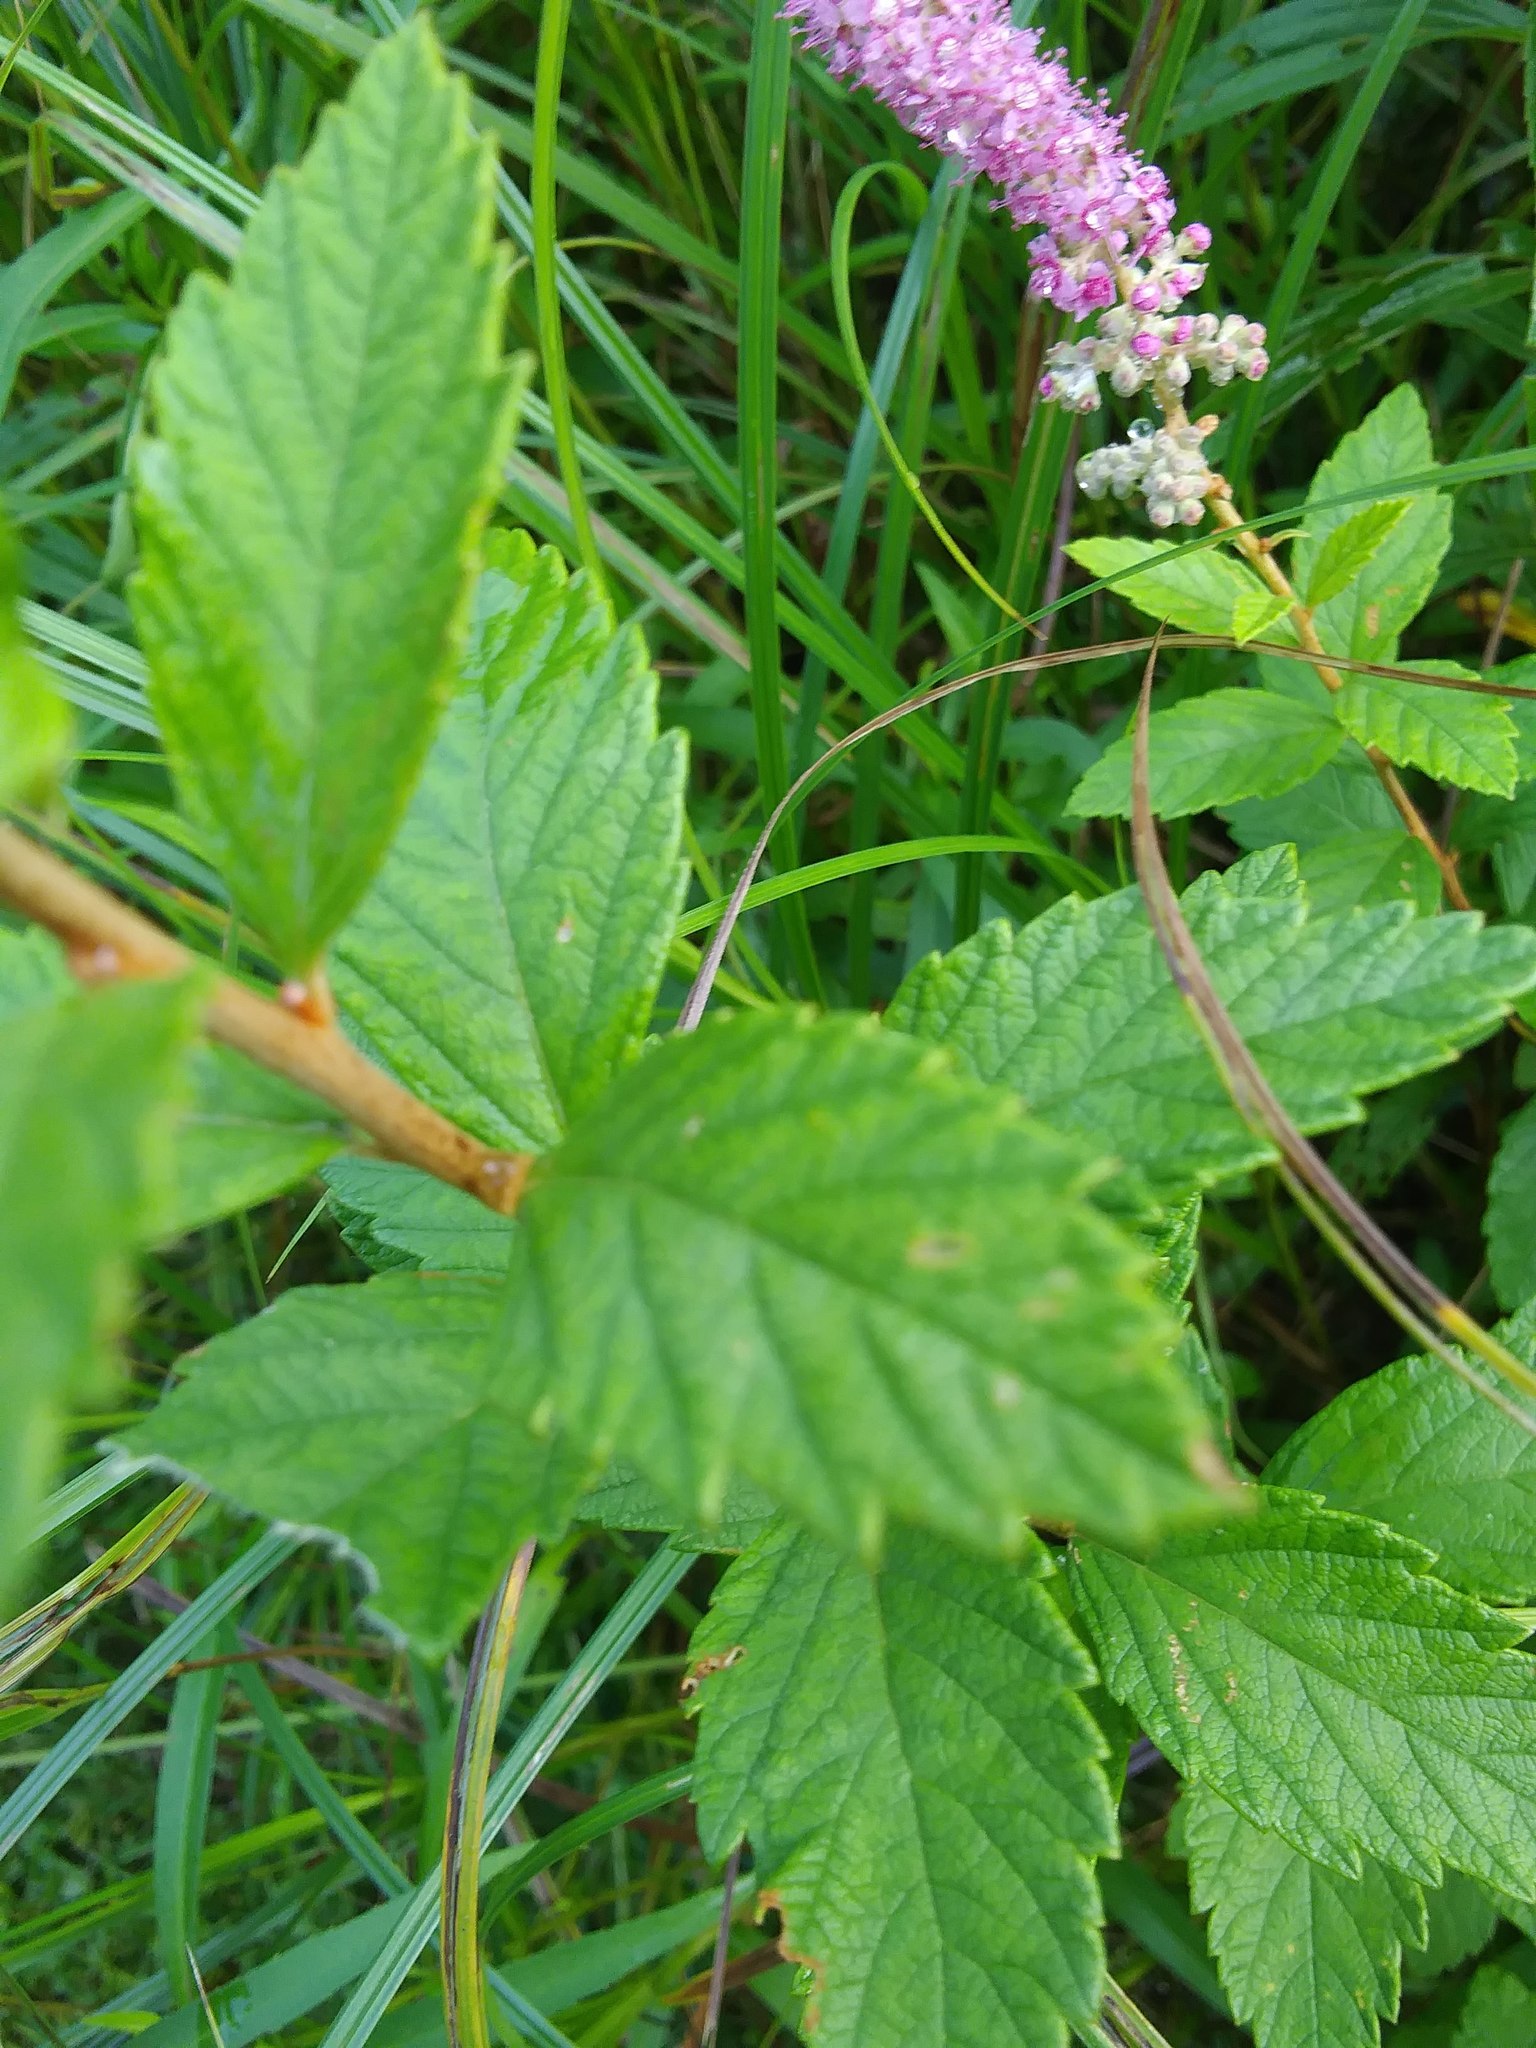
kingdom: Plantae
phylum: Tracheophyta
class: Magnoliopsida
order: Rosales
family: Rosaceae
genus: Spiraea
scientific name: Spiraea tomentosa
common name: Hardhack
